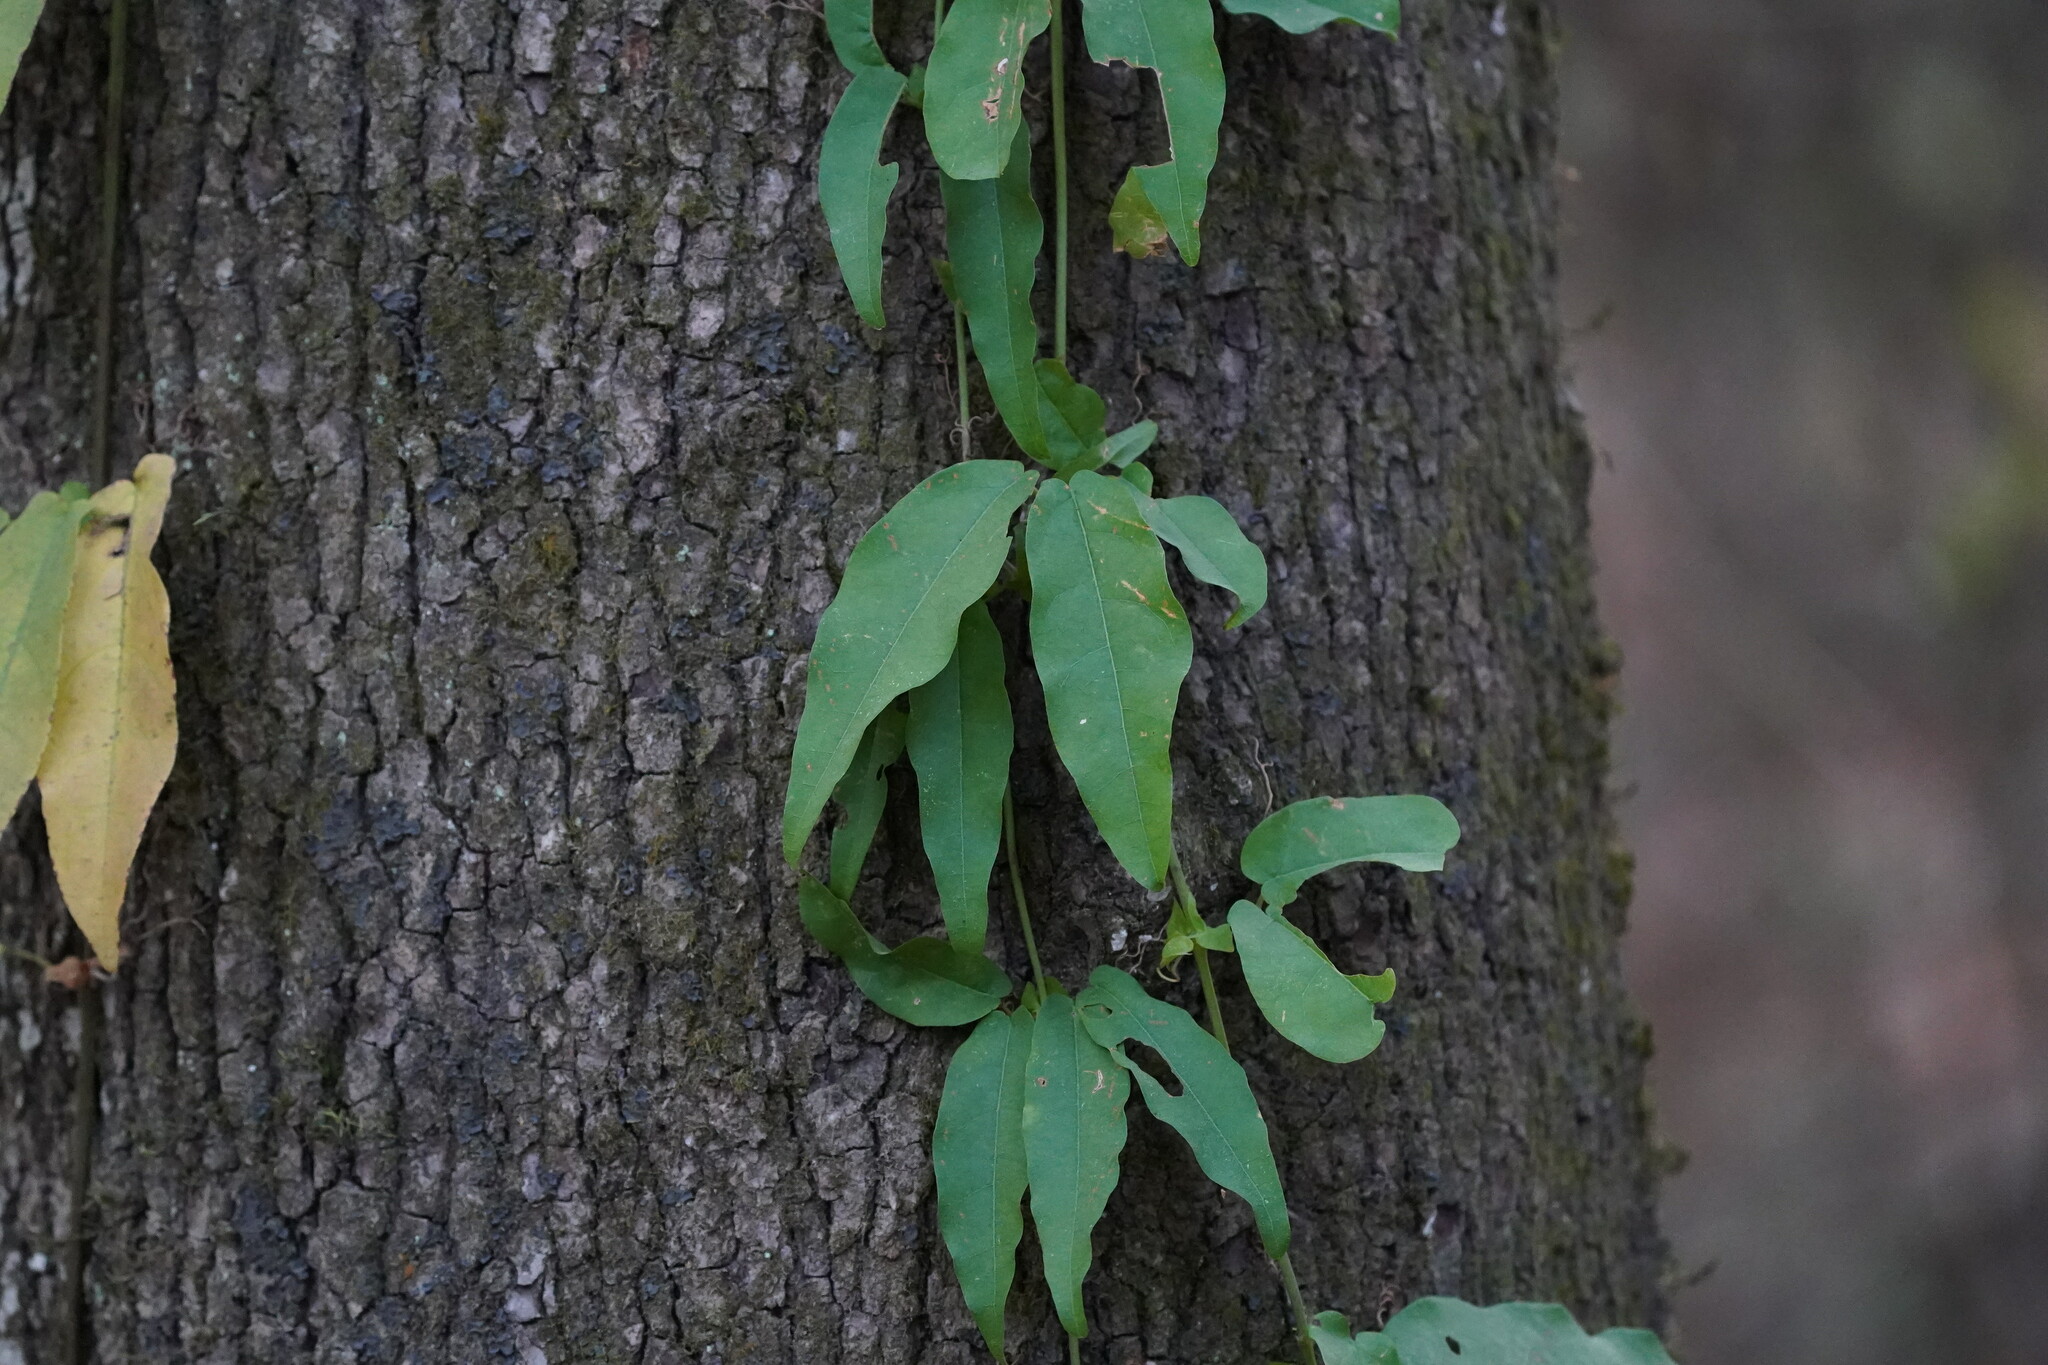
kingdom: Plantae
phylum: Tracheophyta
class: Magnoliopsida
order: Lamiales
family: Bignoniaceae
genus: Bignonia
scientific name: Bignonia capreolata
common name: Crossvine
